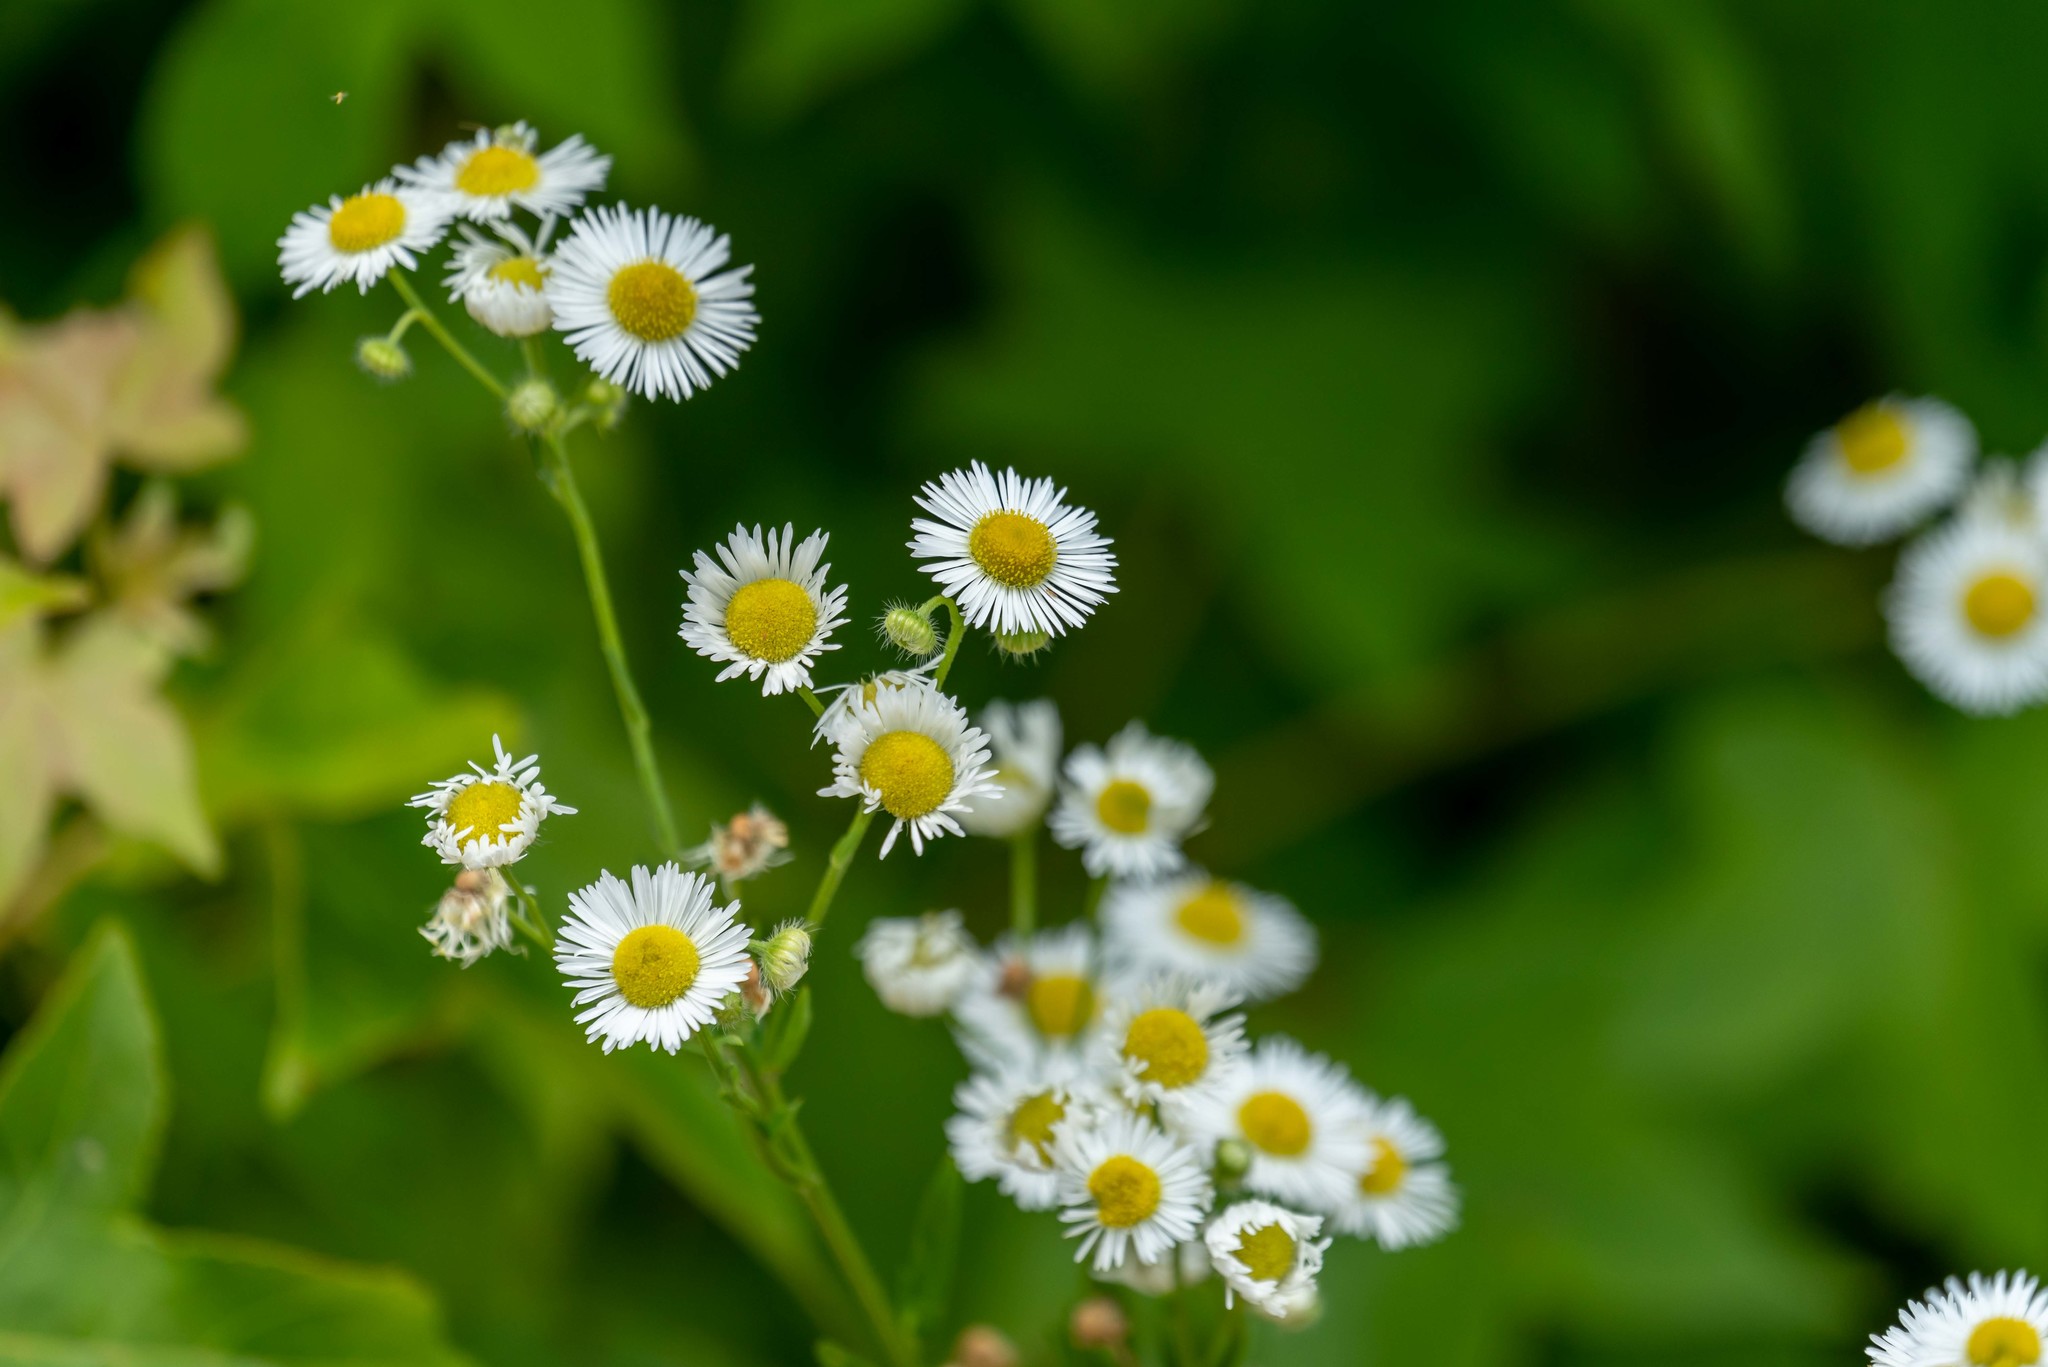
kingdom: Plantae
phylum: Tracheophyta
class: Magnoliopsida
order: Asterales
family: Asteraceae
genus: Erigeron
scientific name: Erigeron strigosus
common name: Common eastern fleabane
